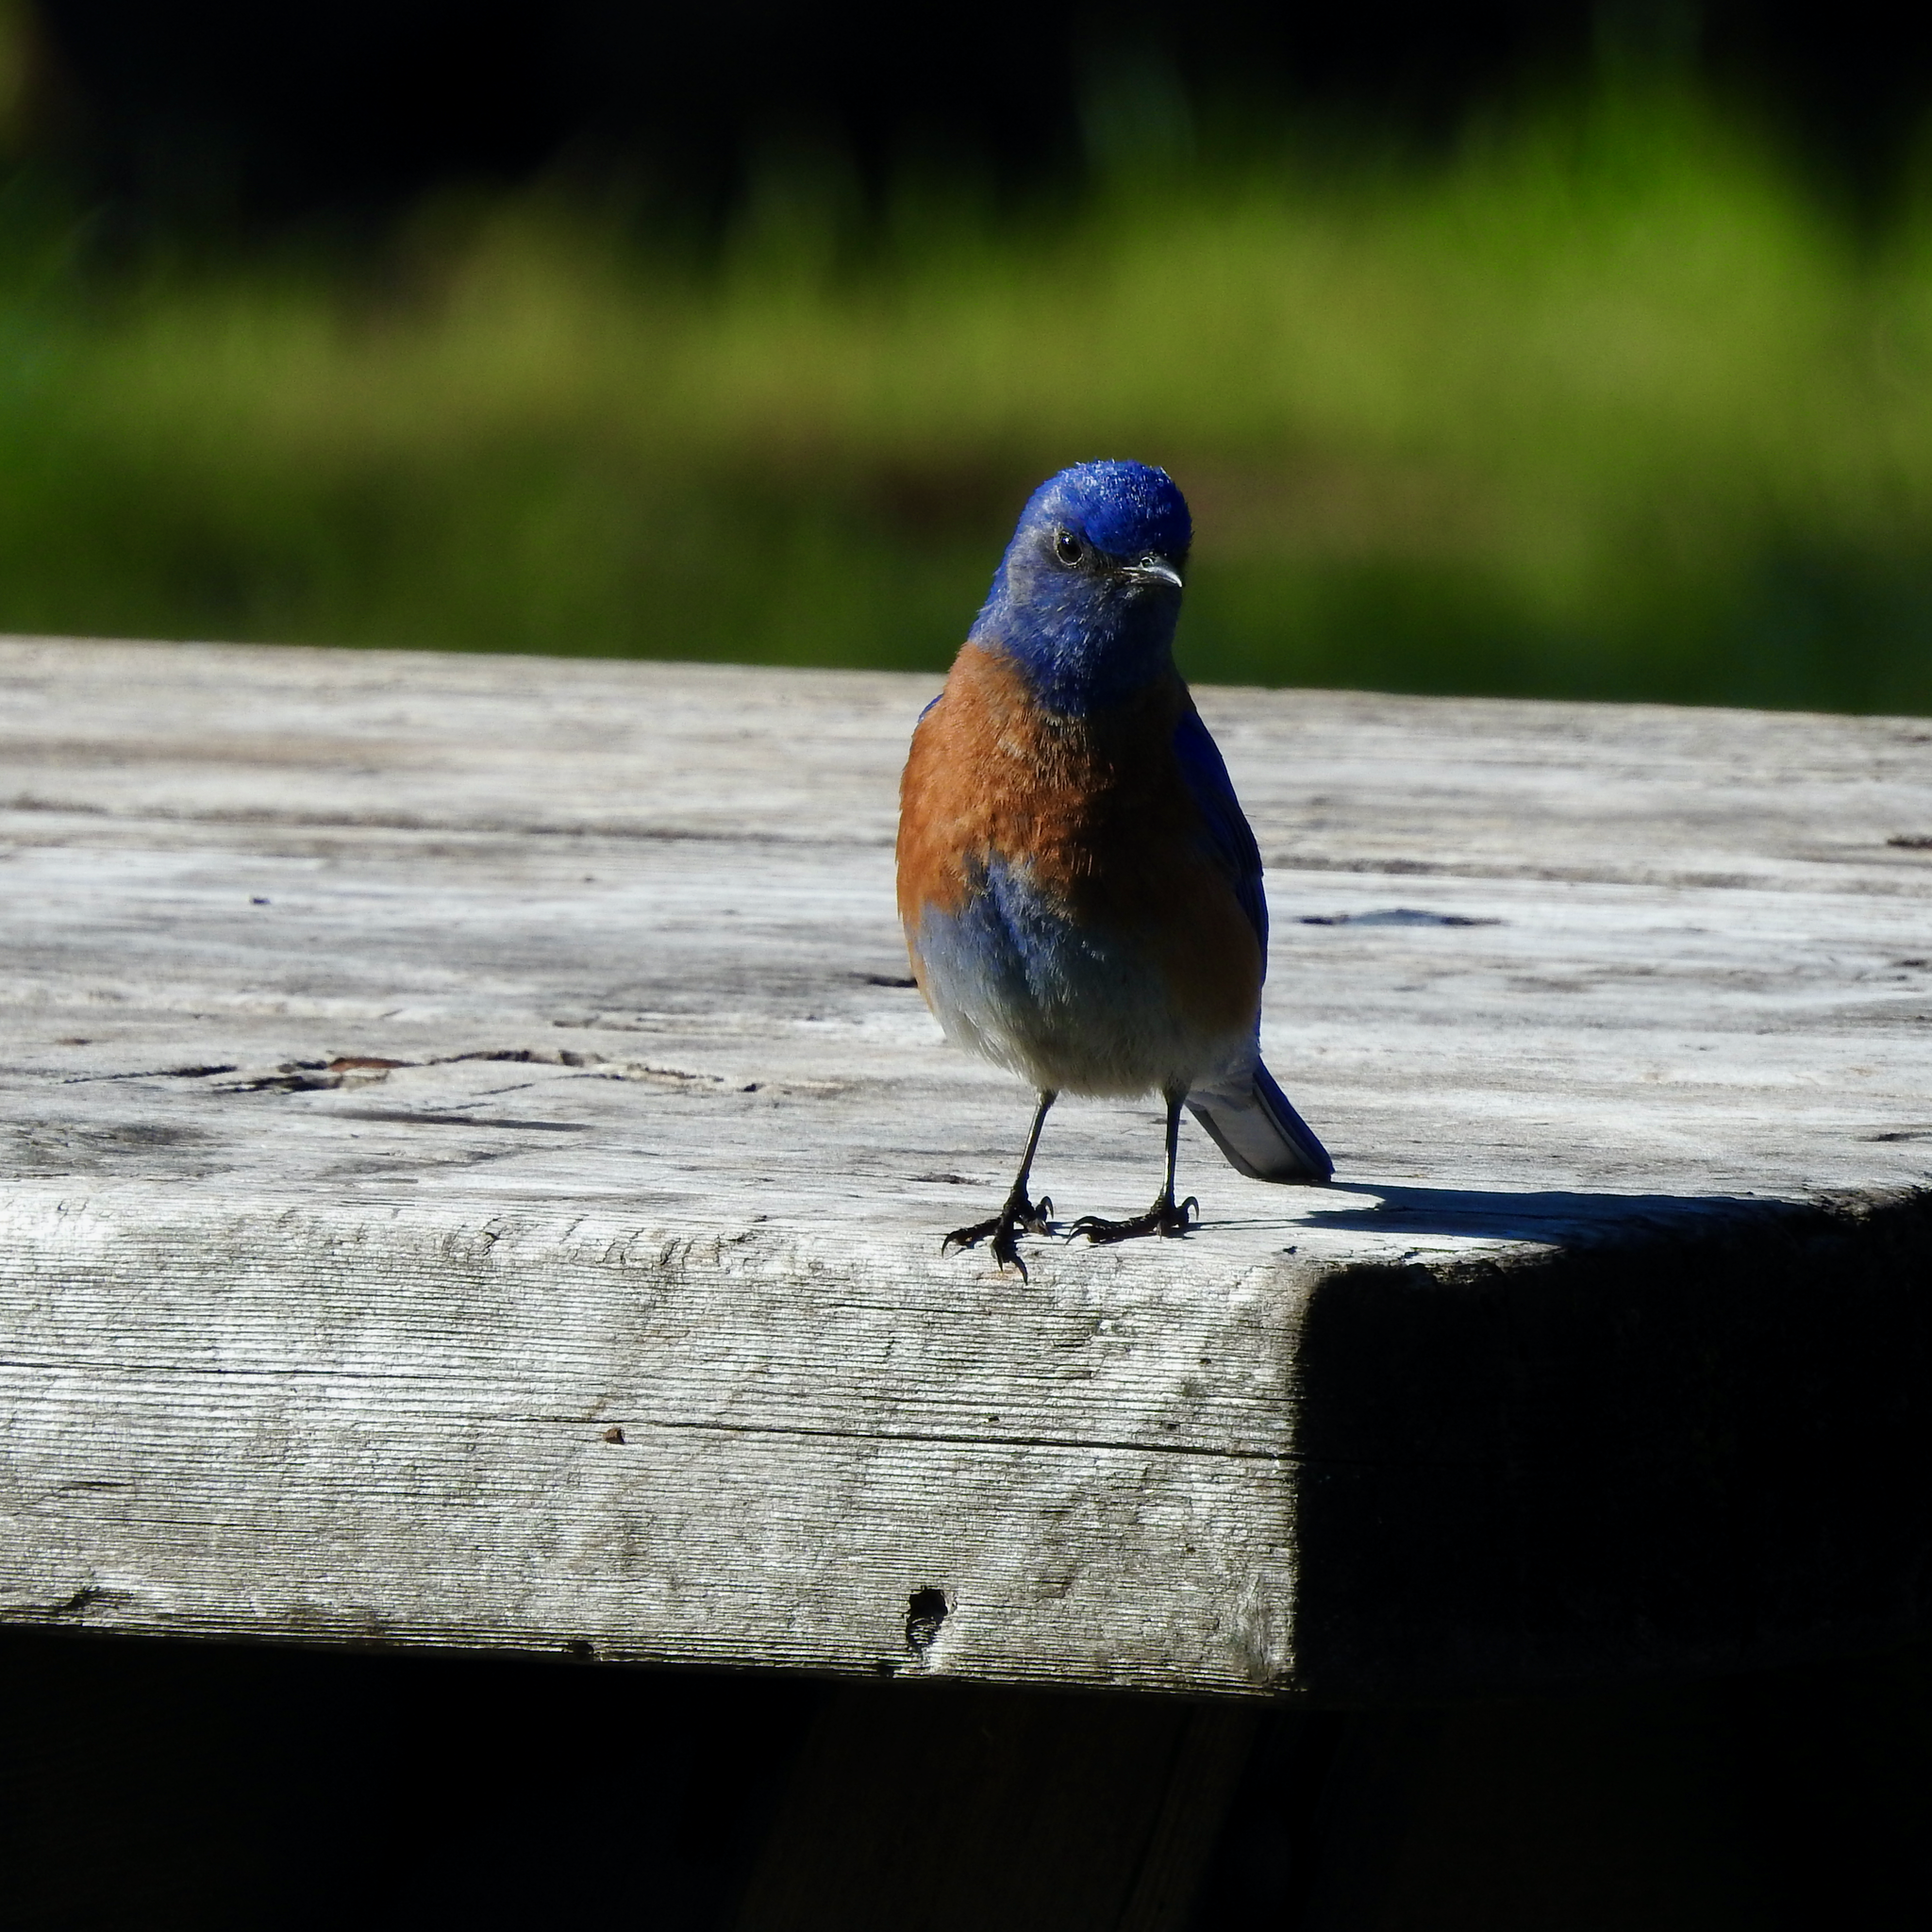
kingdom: Animalia
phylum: Chordata
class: Aves
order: Passeriformes
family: Turdidae
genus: Sialia
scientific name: Sialia mexicana
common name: Western bluebird
